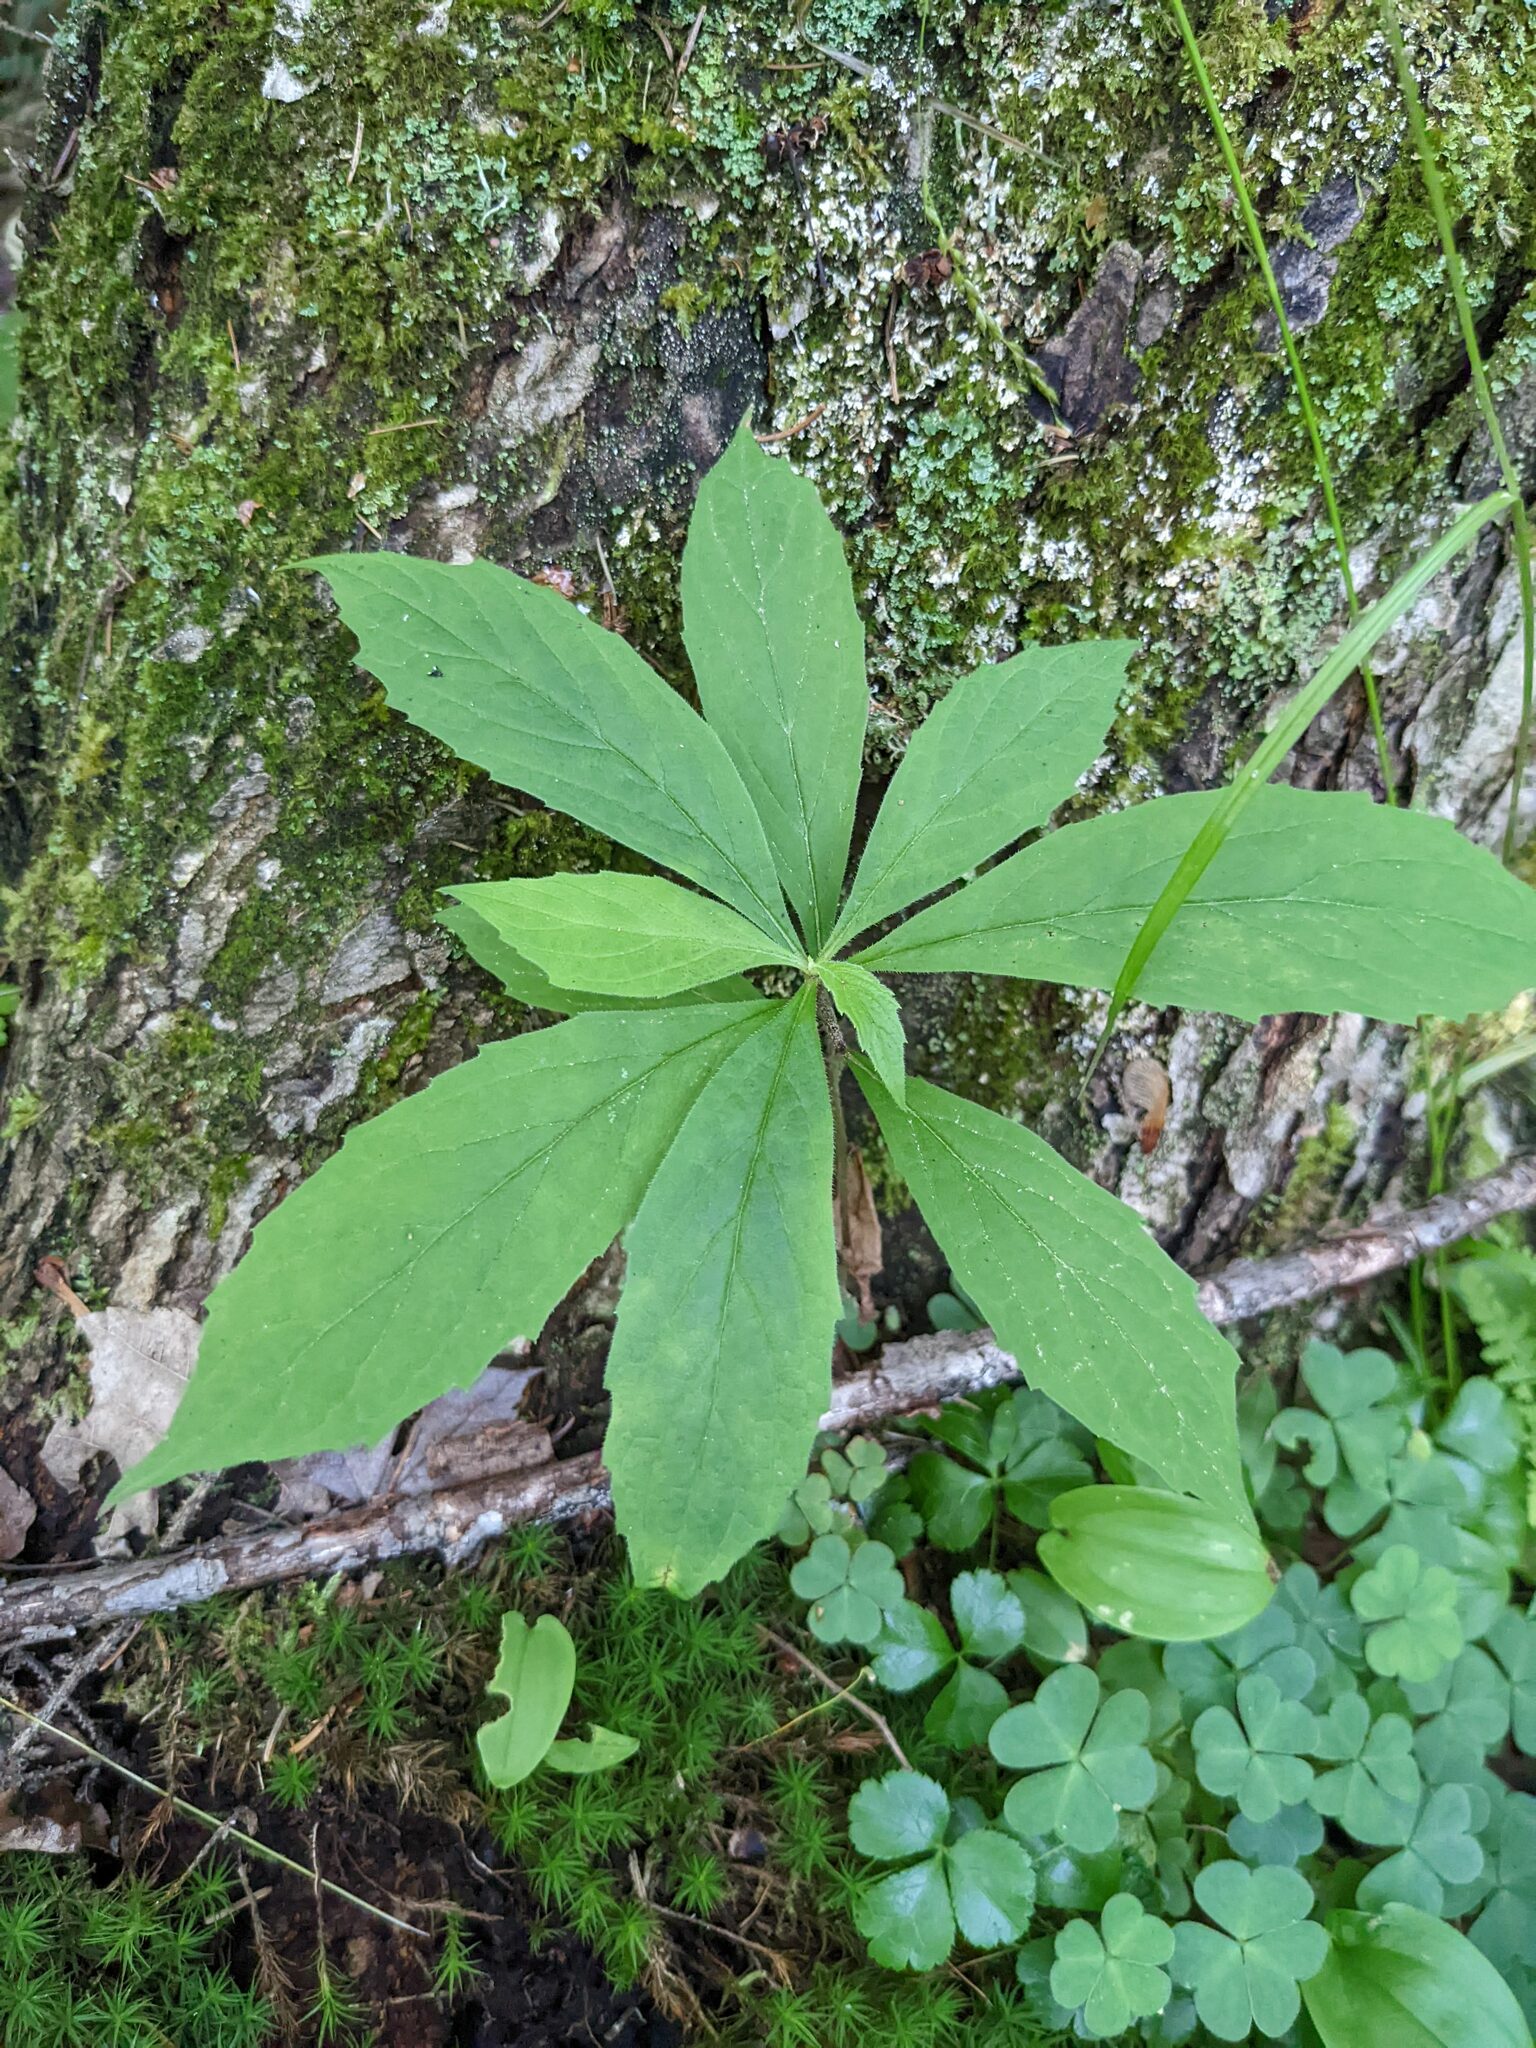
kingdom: Plantae
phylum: Tracheophyta
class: Magnoliopsida
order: Asterales
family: Asteraceae
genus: Oclemena
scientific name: Oclemena acuminata
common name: Mountain aster
